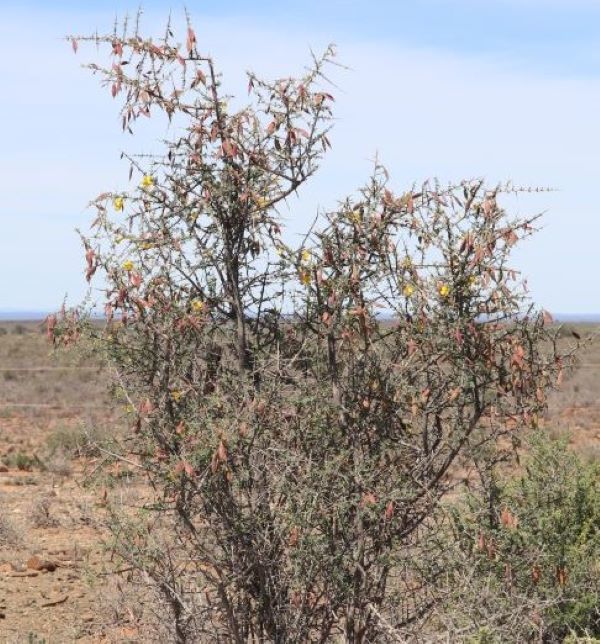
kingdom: Plantae
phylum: Tracheophyta
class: Magnoliopsida
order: Lamiales
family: Bignoniaceae
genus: Rhigozum
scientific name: Rhigozum obovatum
